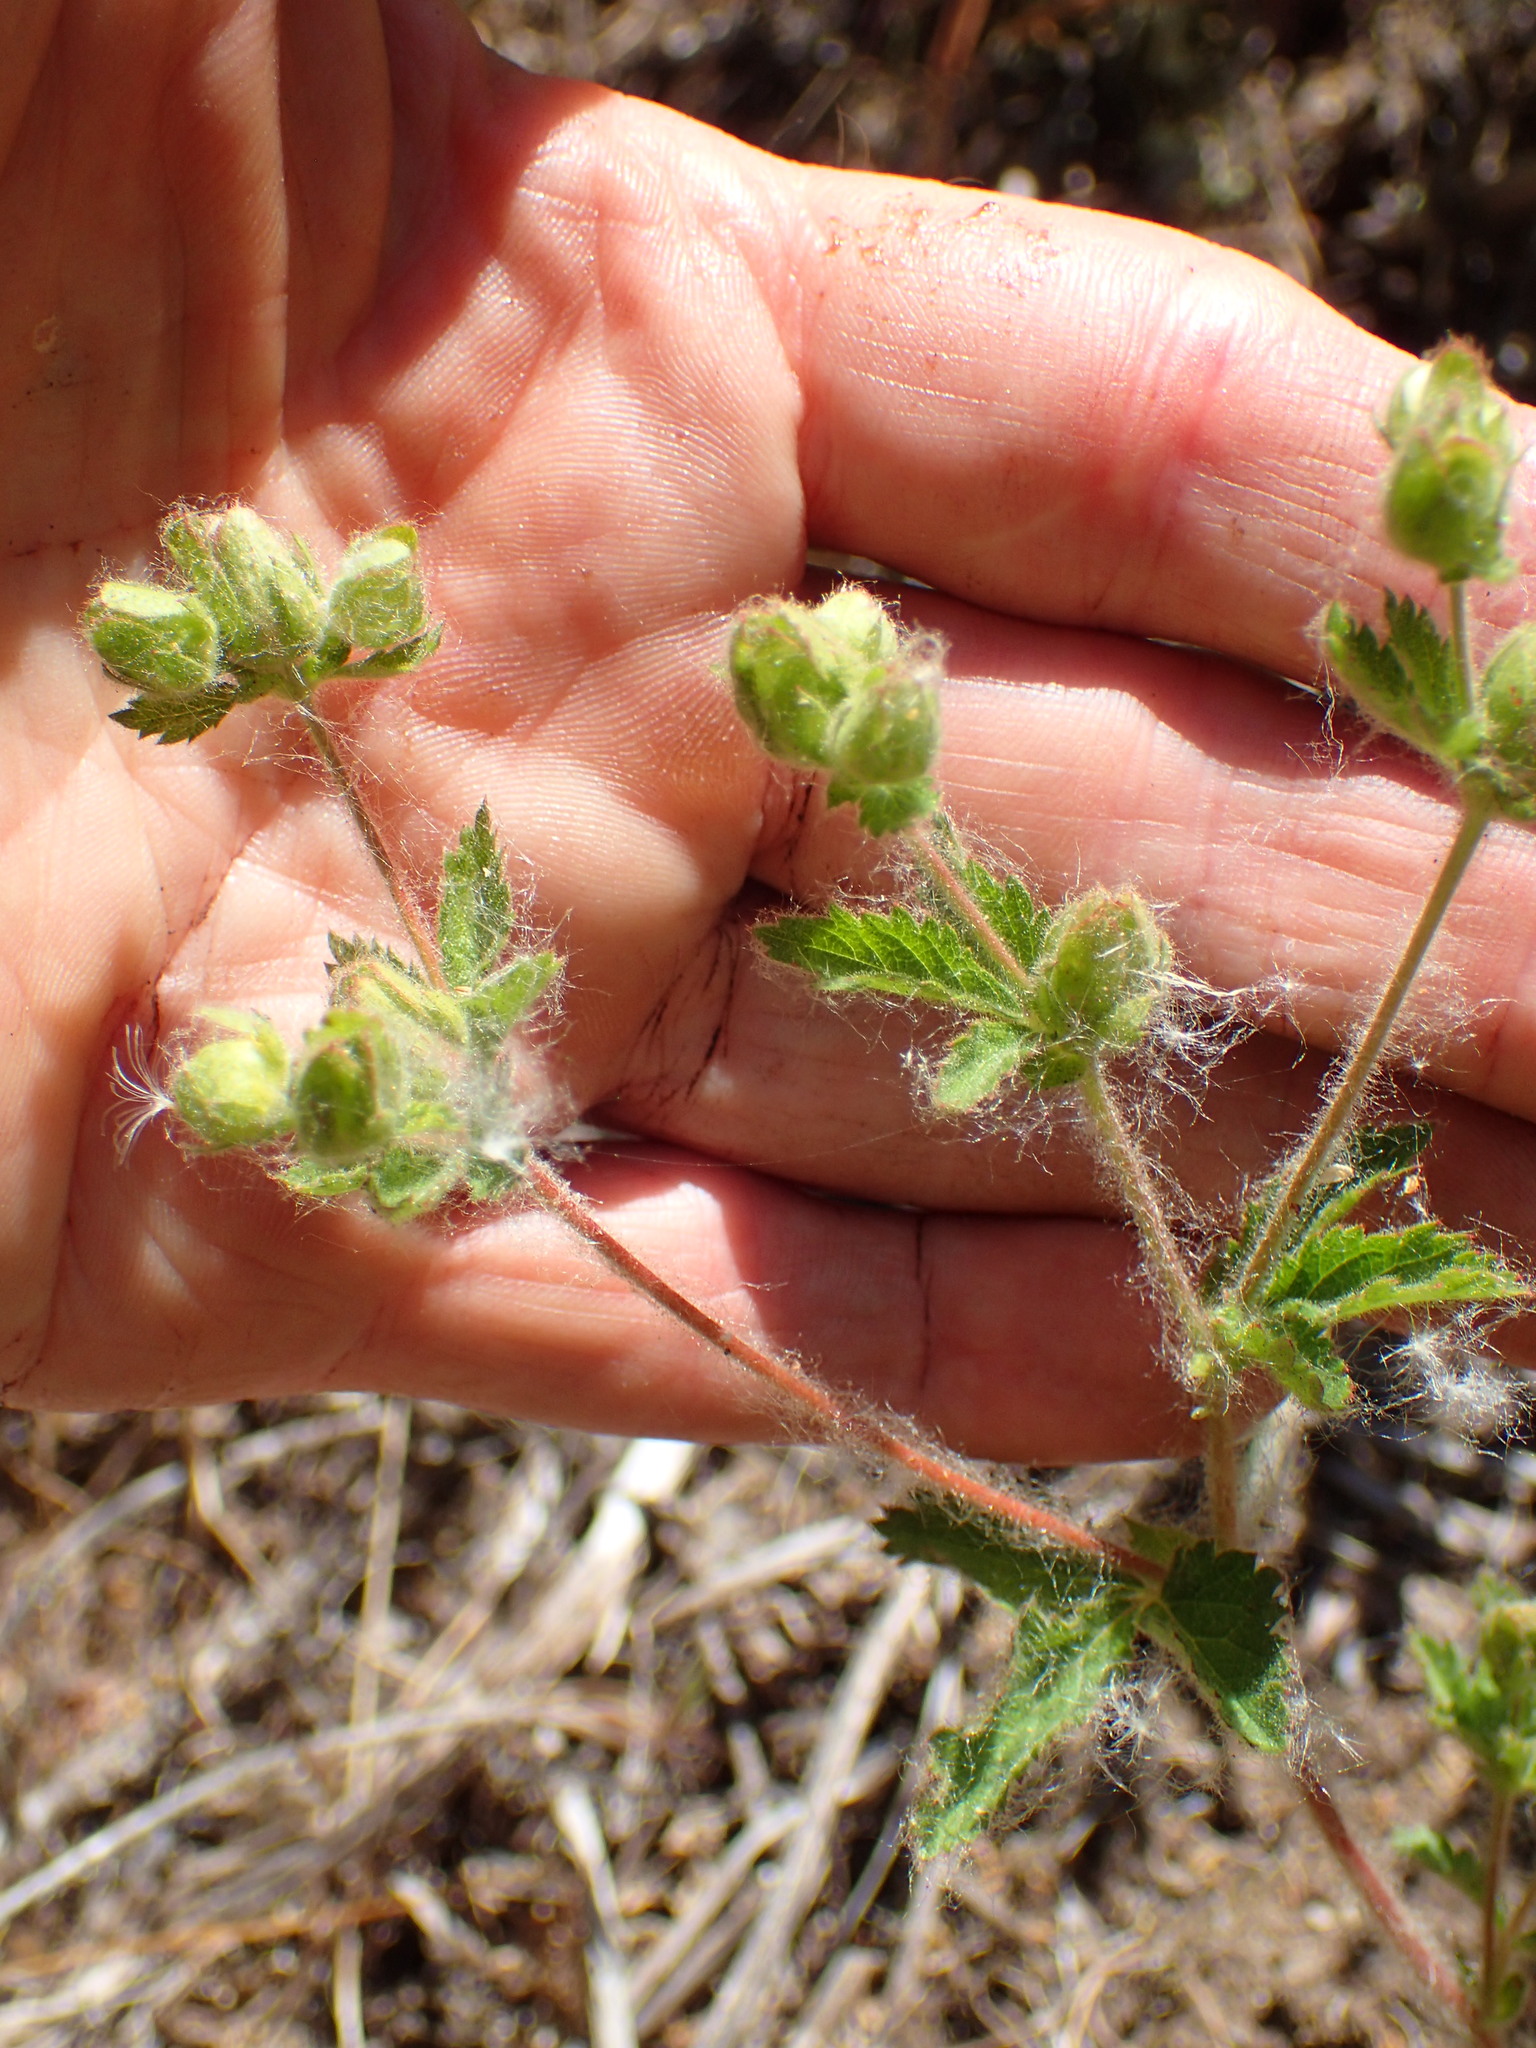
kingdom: Plantae
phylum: Tracheophyta
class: Magnoliopsida
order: Rosales
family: Rosaceae
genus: Drymocallis
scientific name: Drymocallis glandulosa
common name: Sticky cinquefoil
